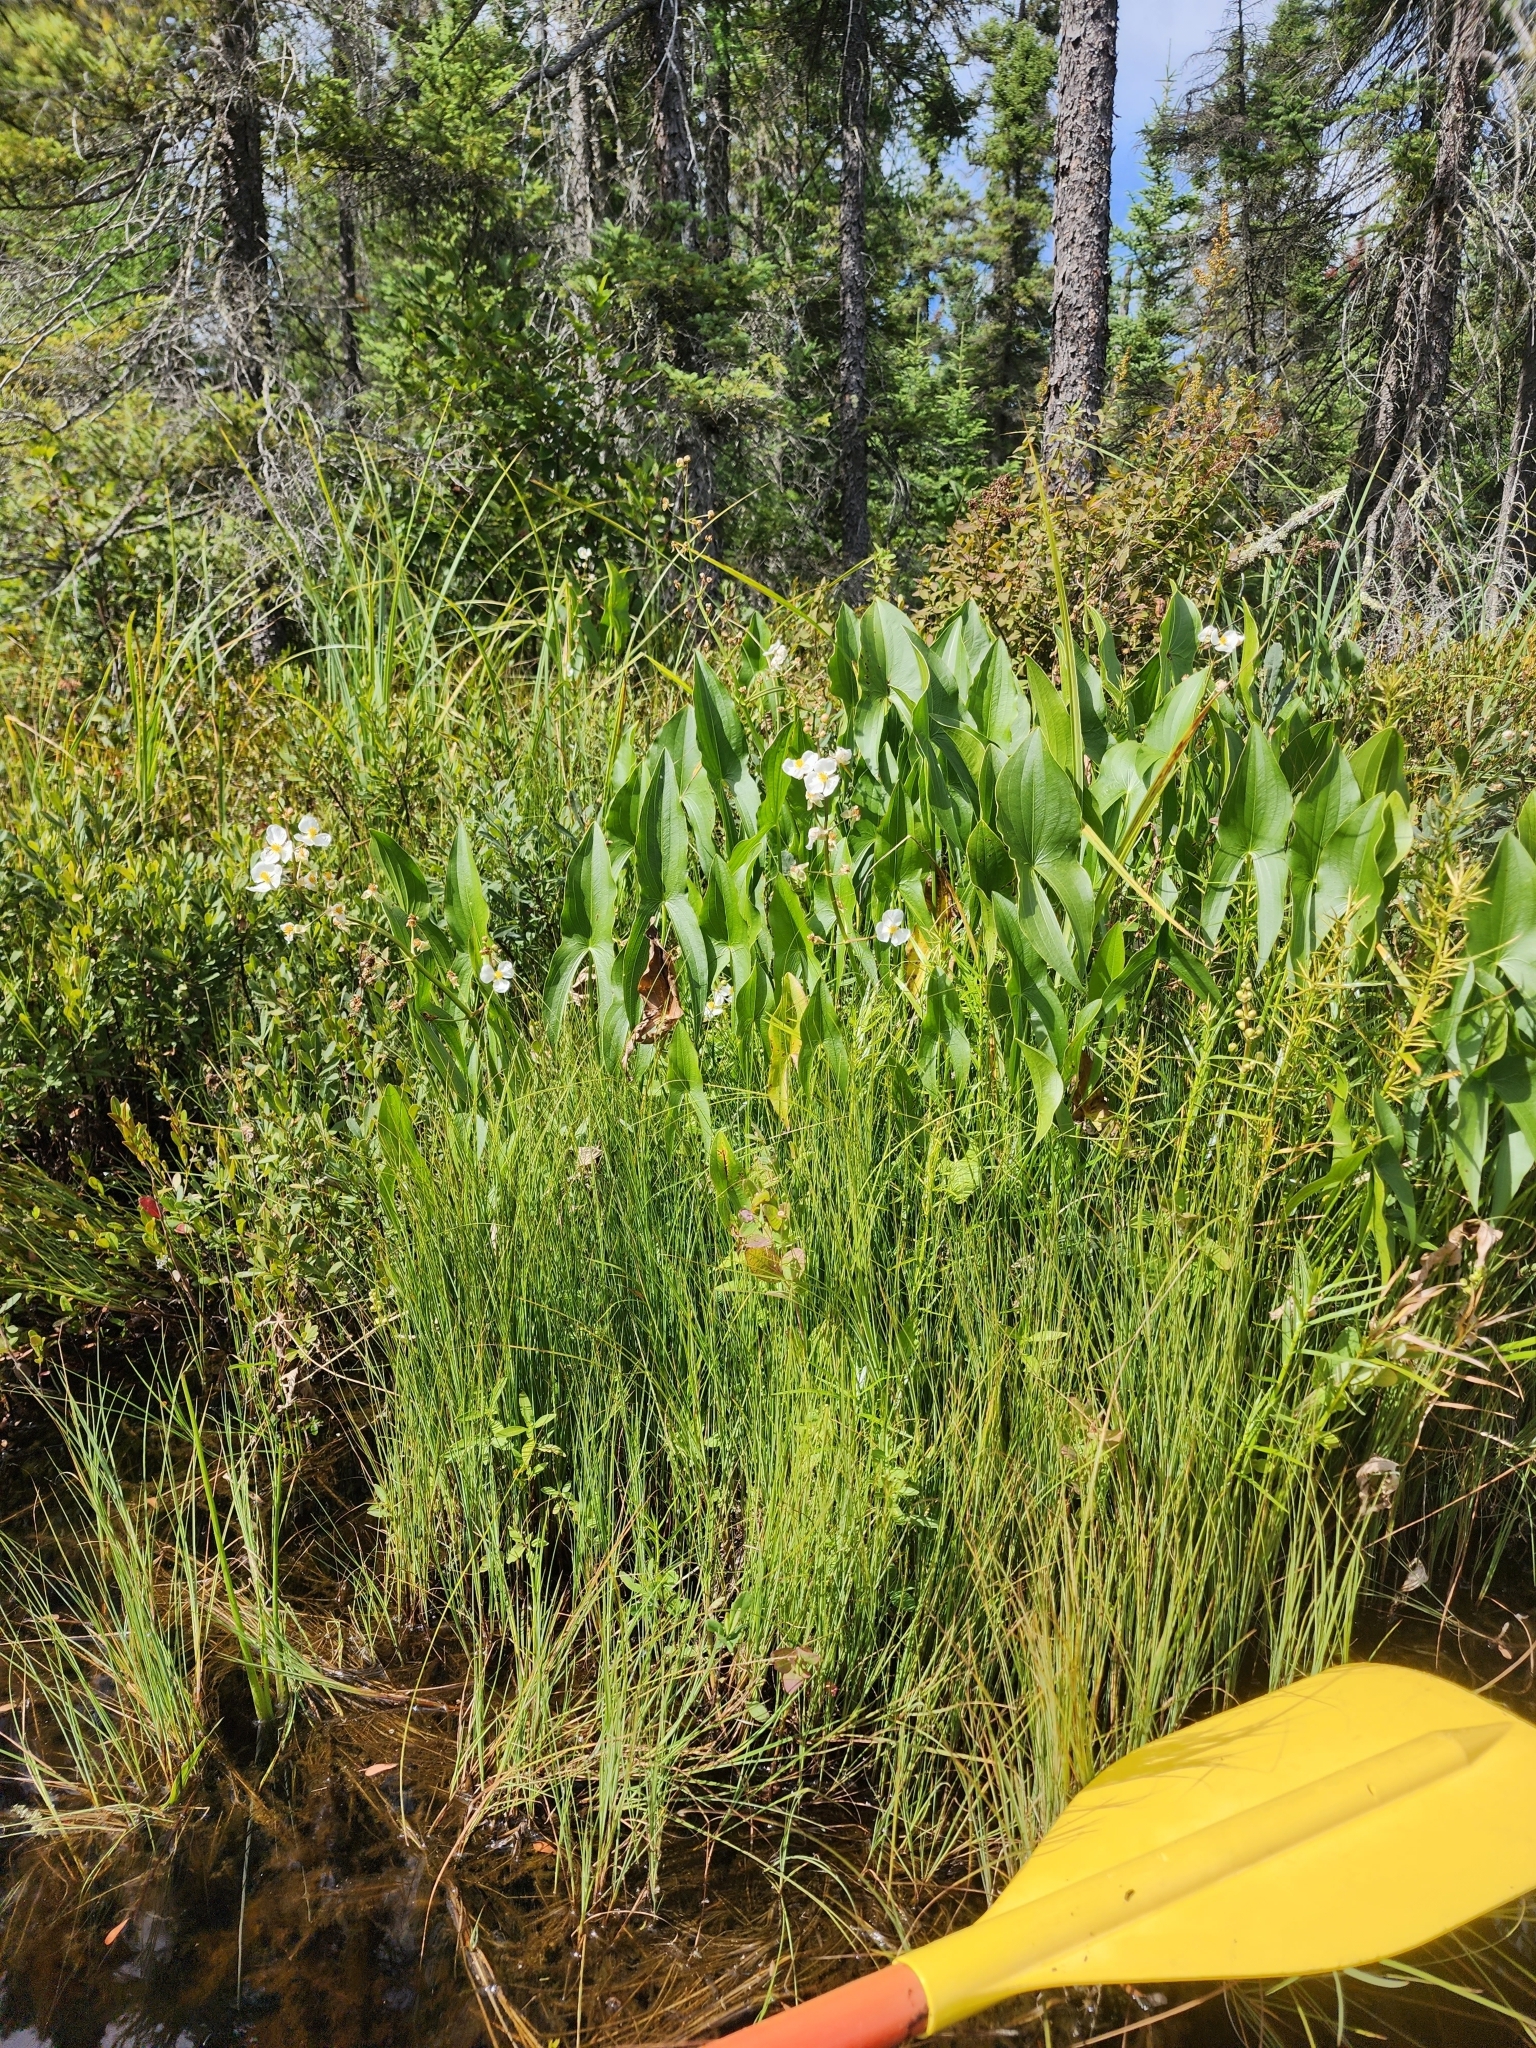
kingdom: Plantae
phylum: Tracheophyta
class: Liliopsida
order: Alismatales
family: Alismataceae
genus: Sagittaria
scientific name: Sagittaria latifolia
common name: Duck-potato
